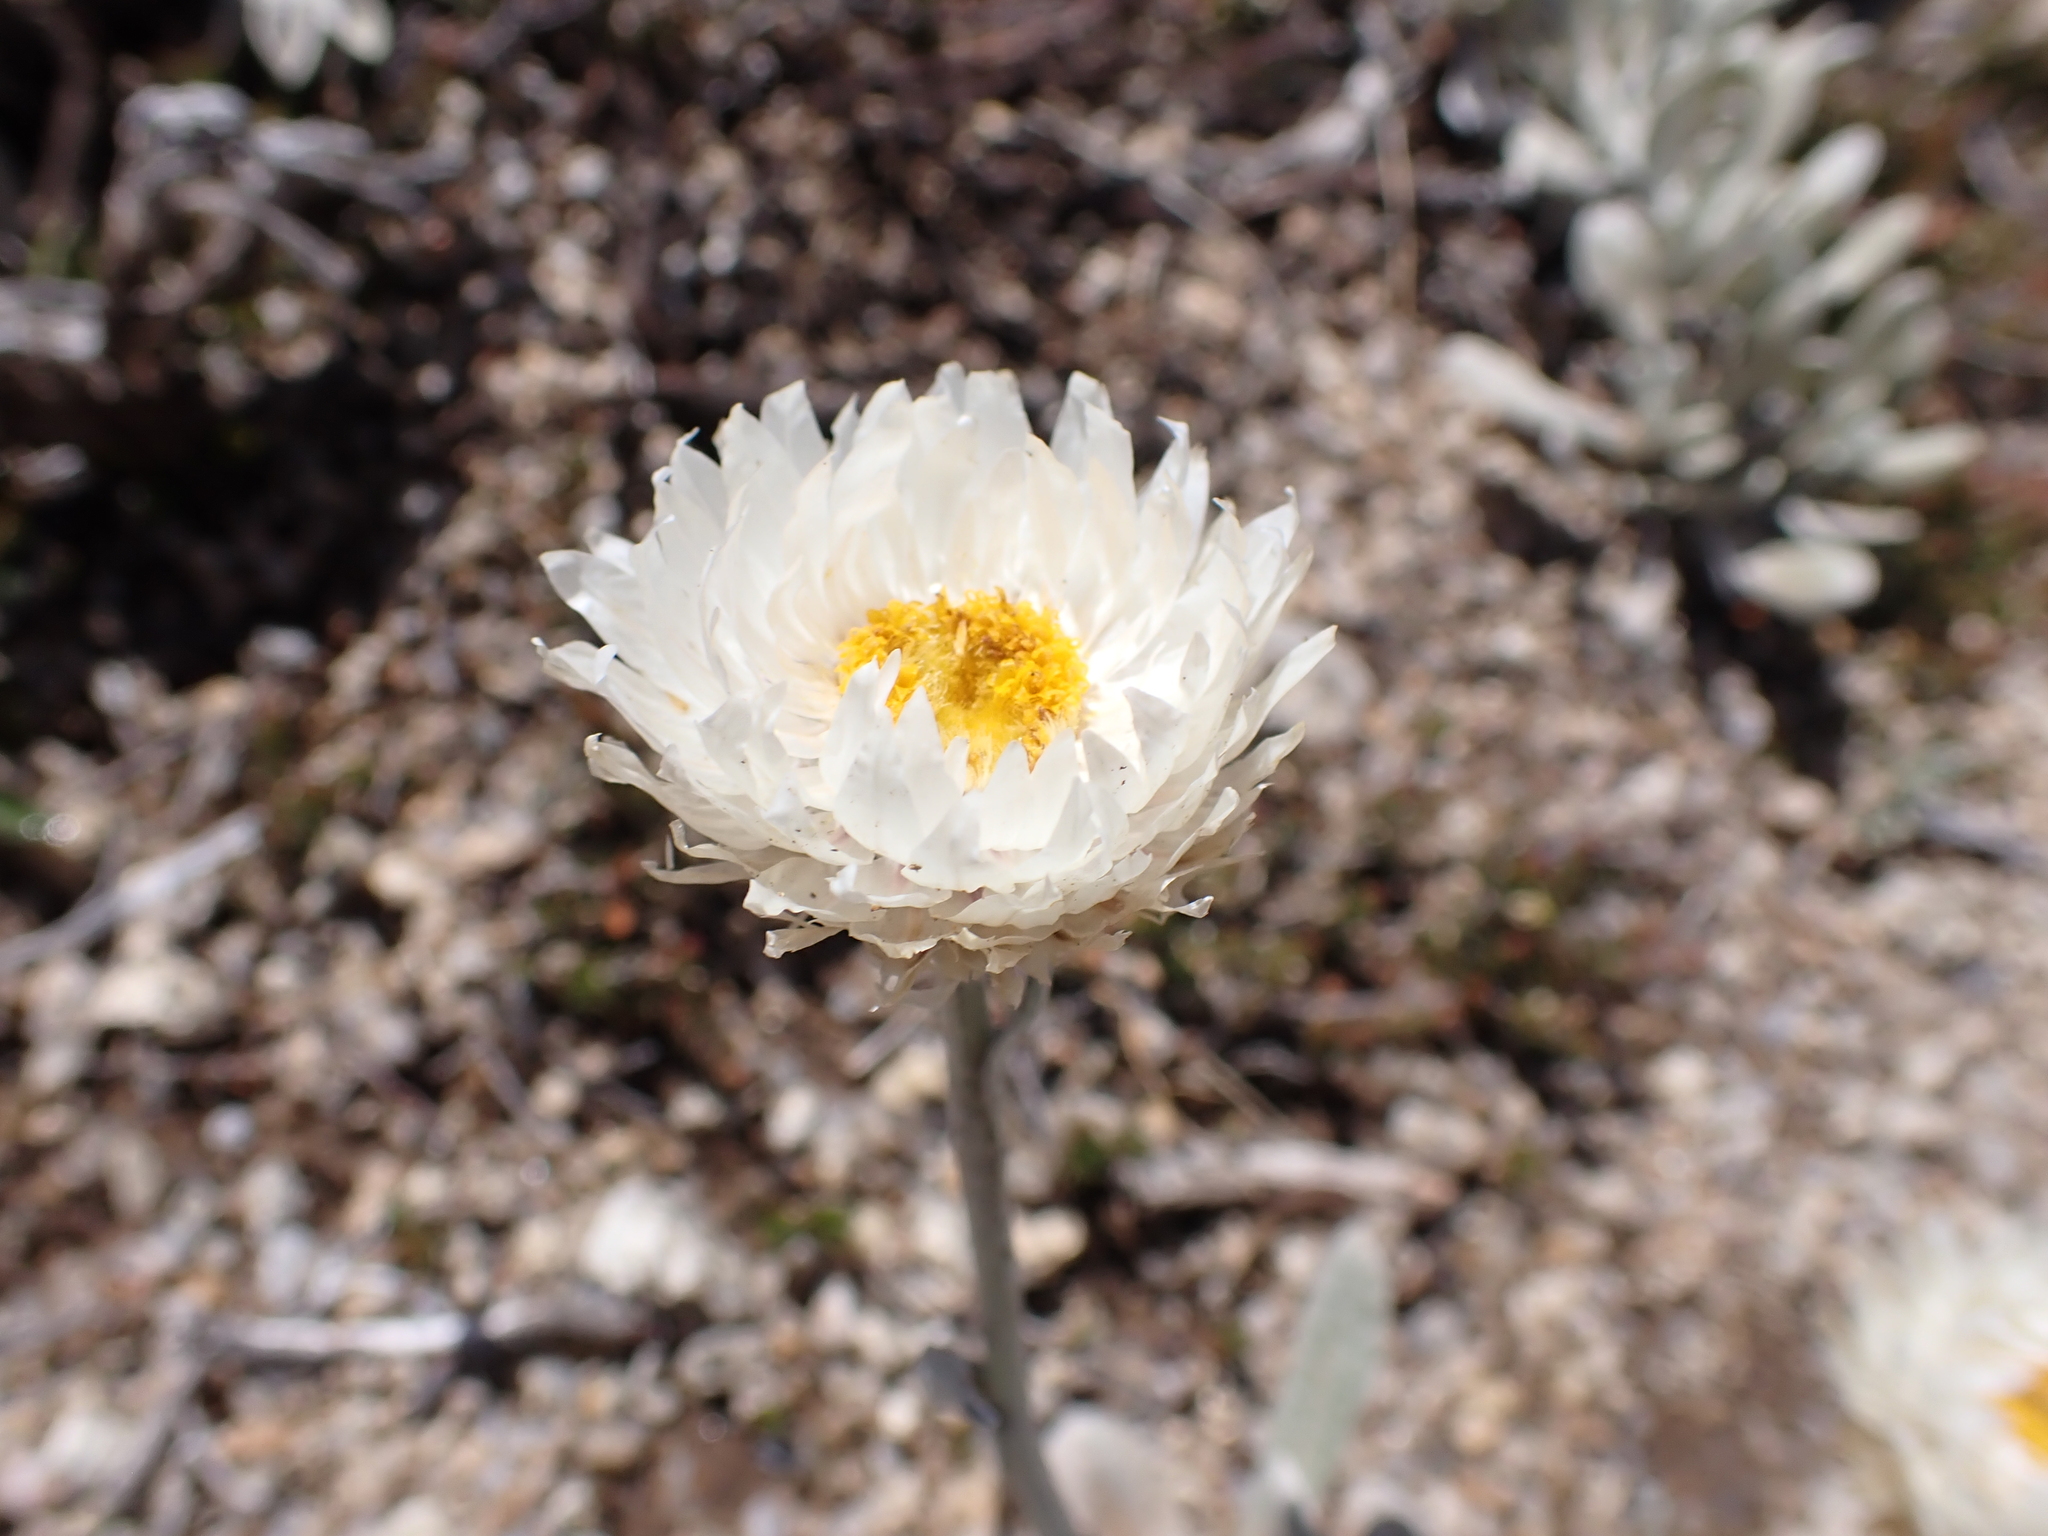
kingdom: Plantae
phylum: Tracheophyta
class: Magnoliopsida
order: Asterales
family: Asteraceae
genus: Leucochrysum
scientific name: Leucochrysum alpinum
